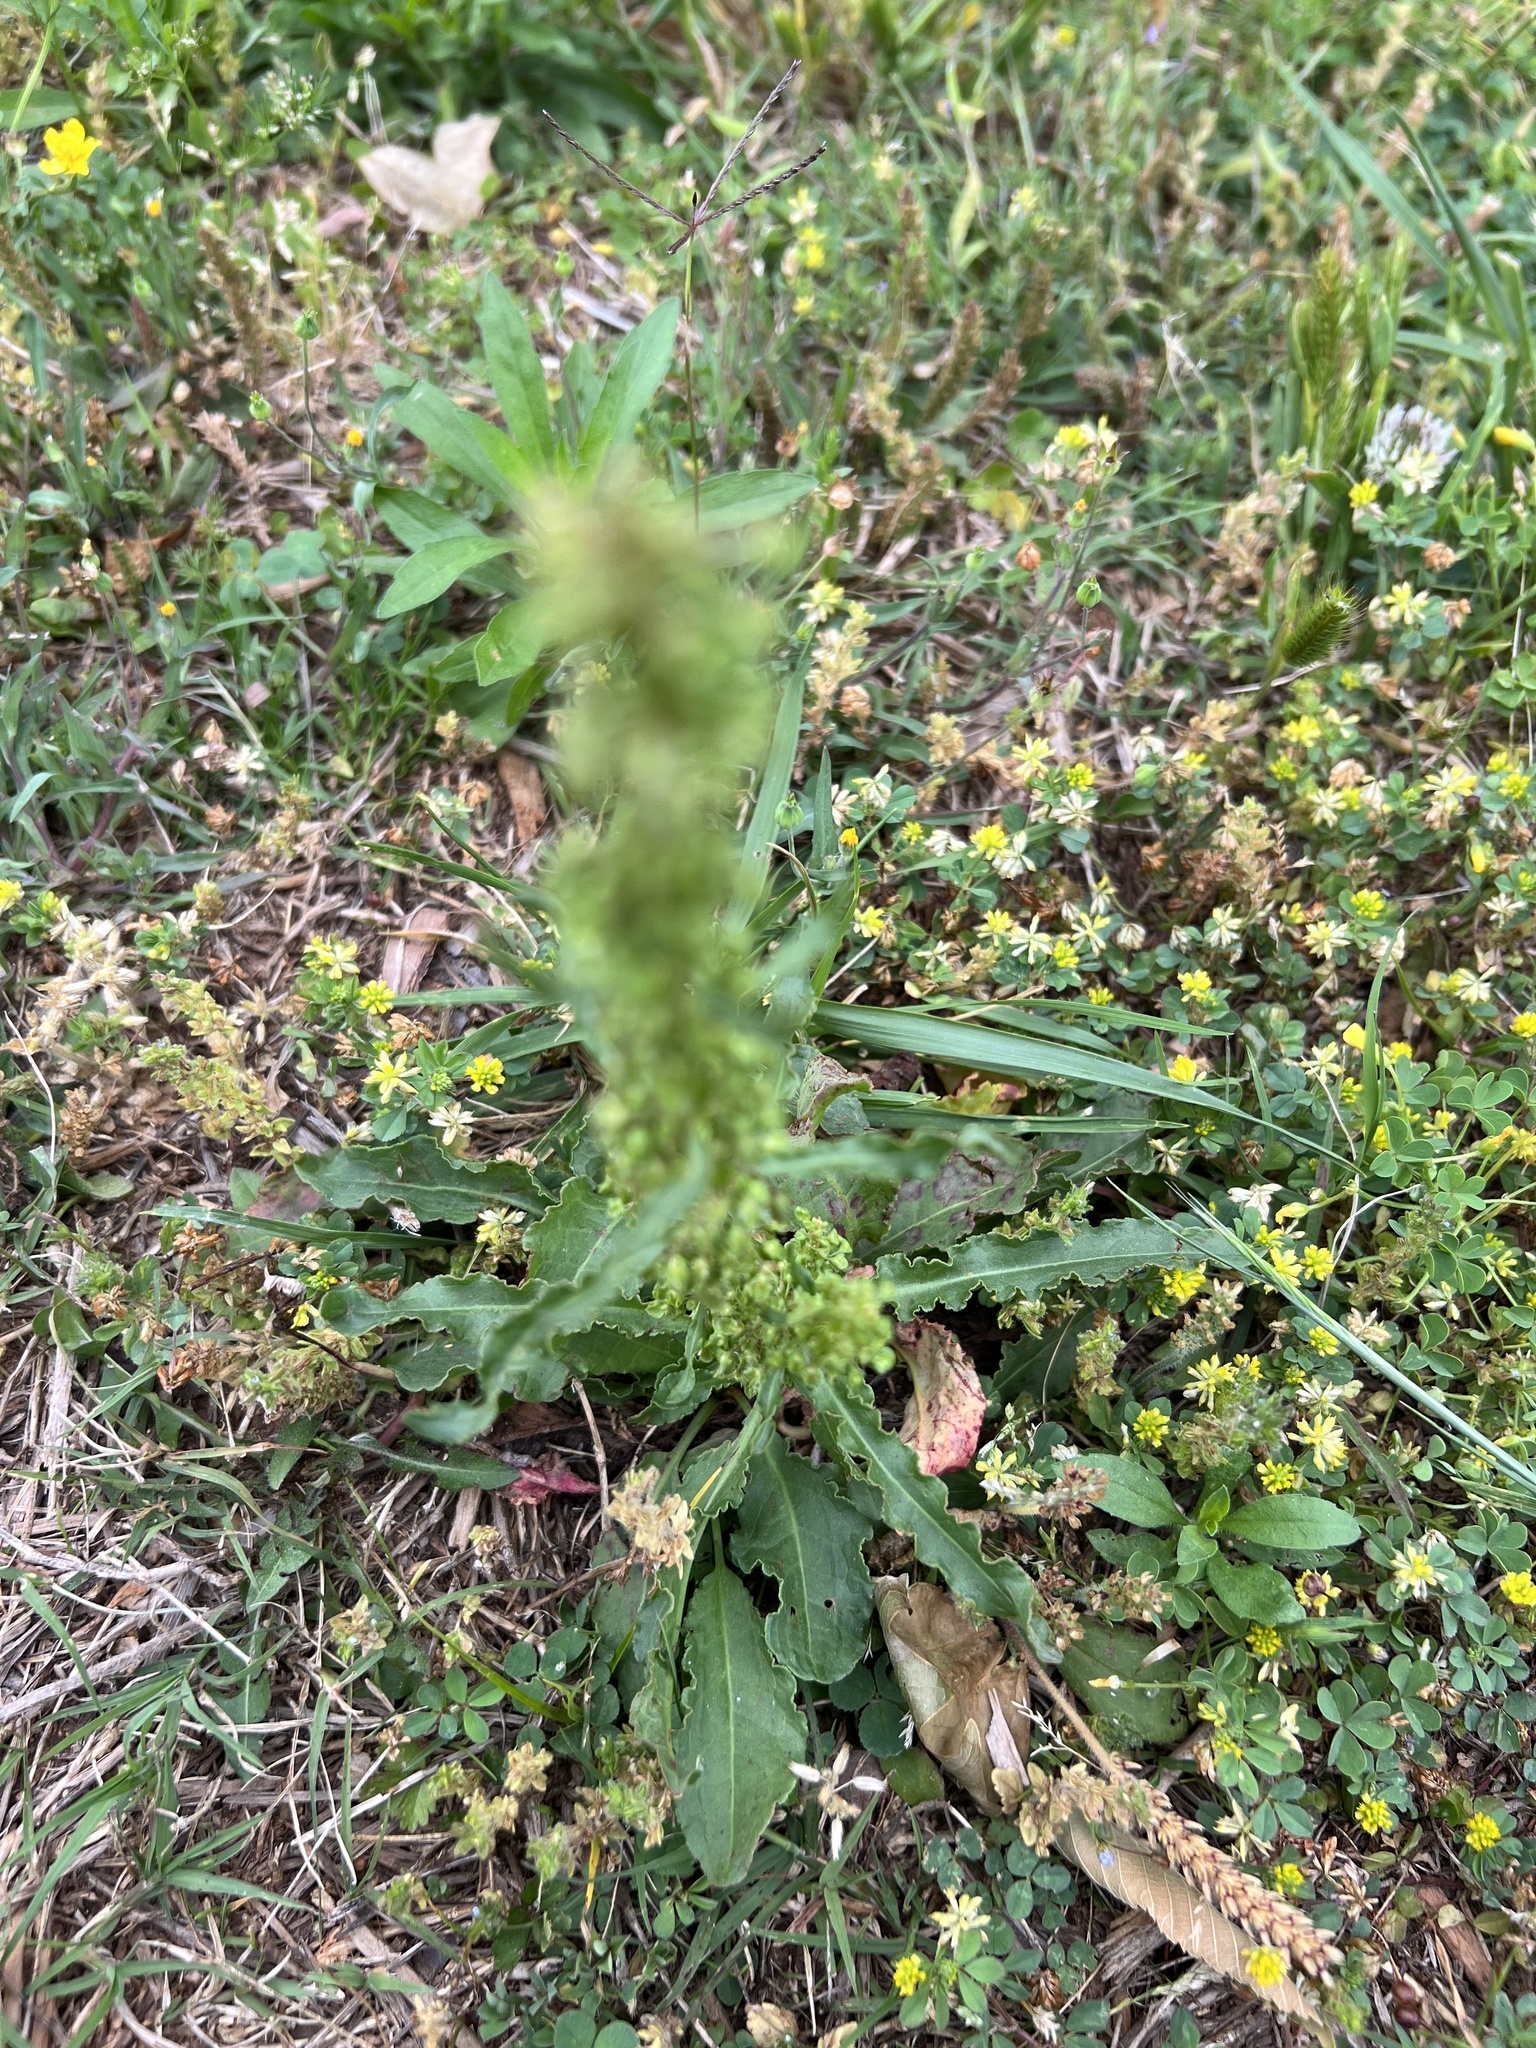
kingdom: Plantae
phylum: Tracheophyta
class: Magnoliopsida
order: Caryophyllales
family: Polygonaceae
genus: Rumex
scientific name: Rumex crispus
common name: Curled dock
